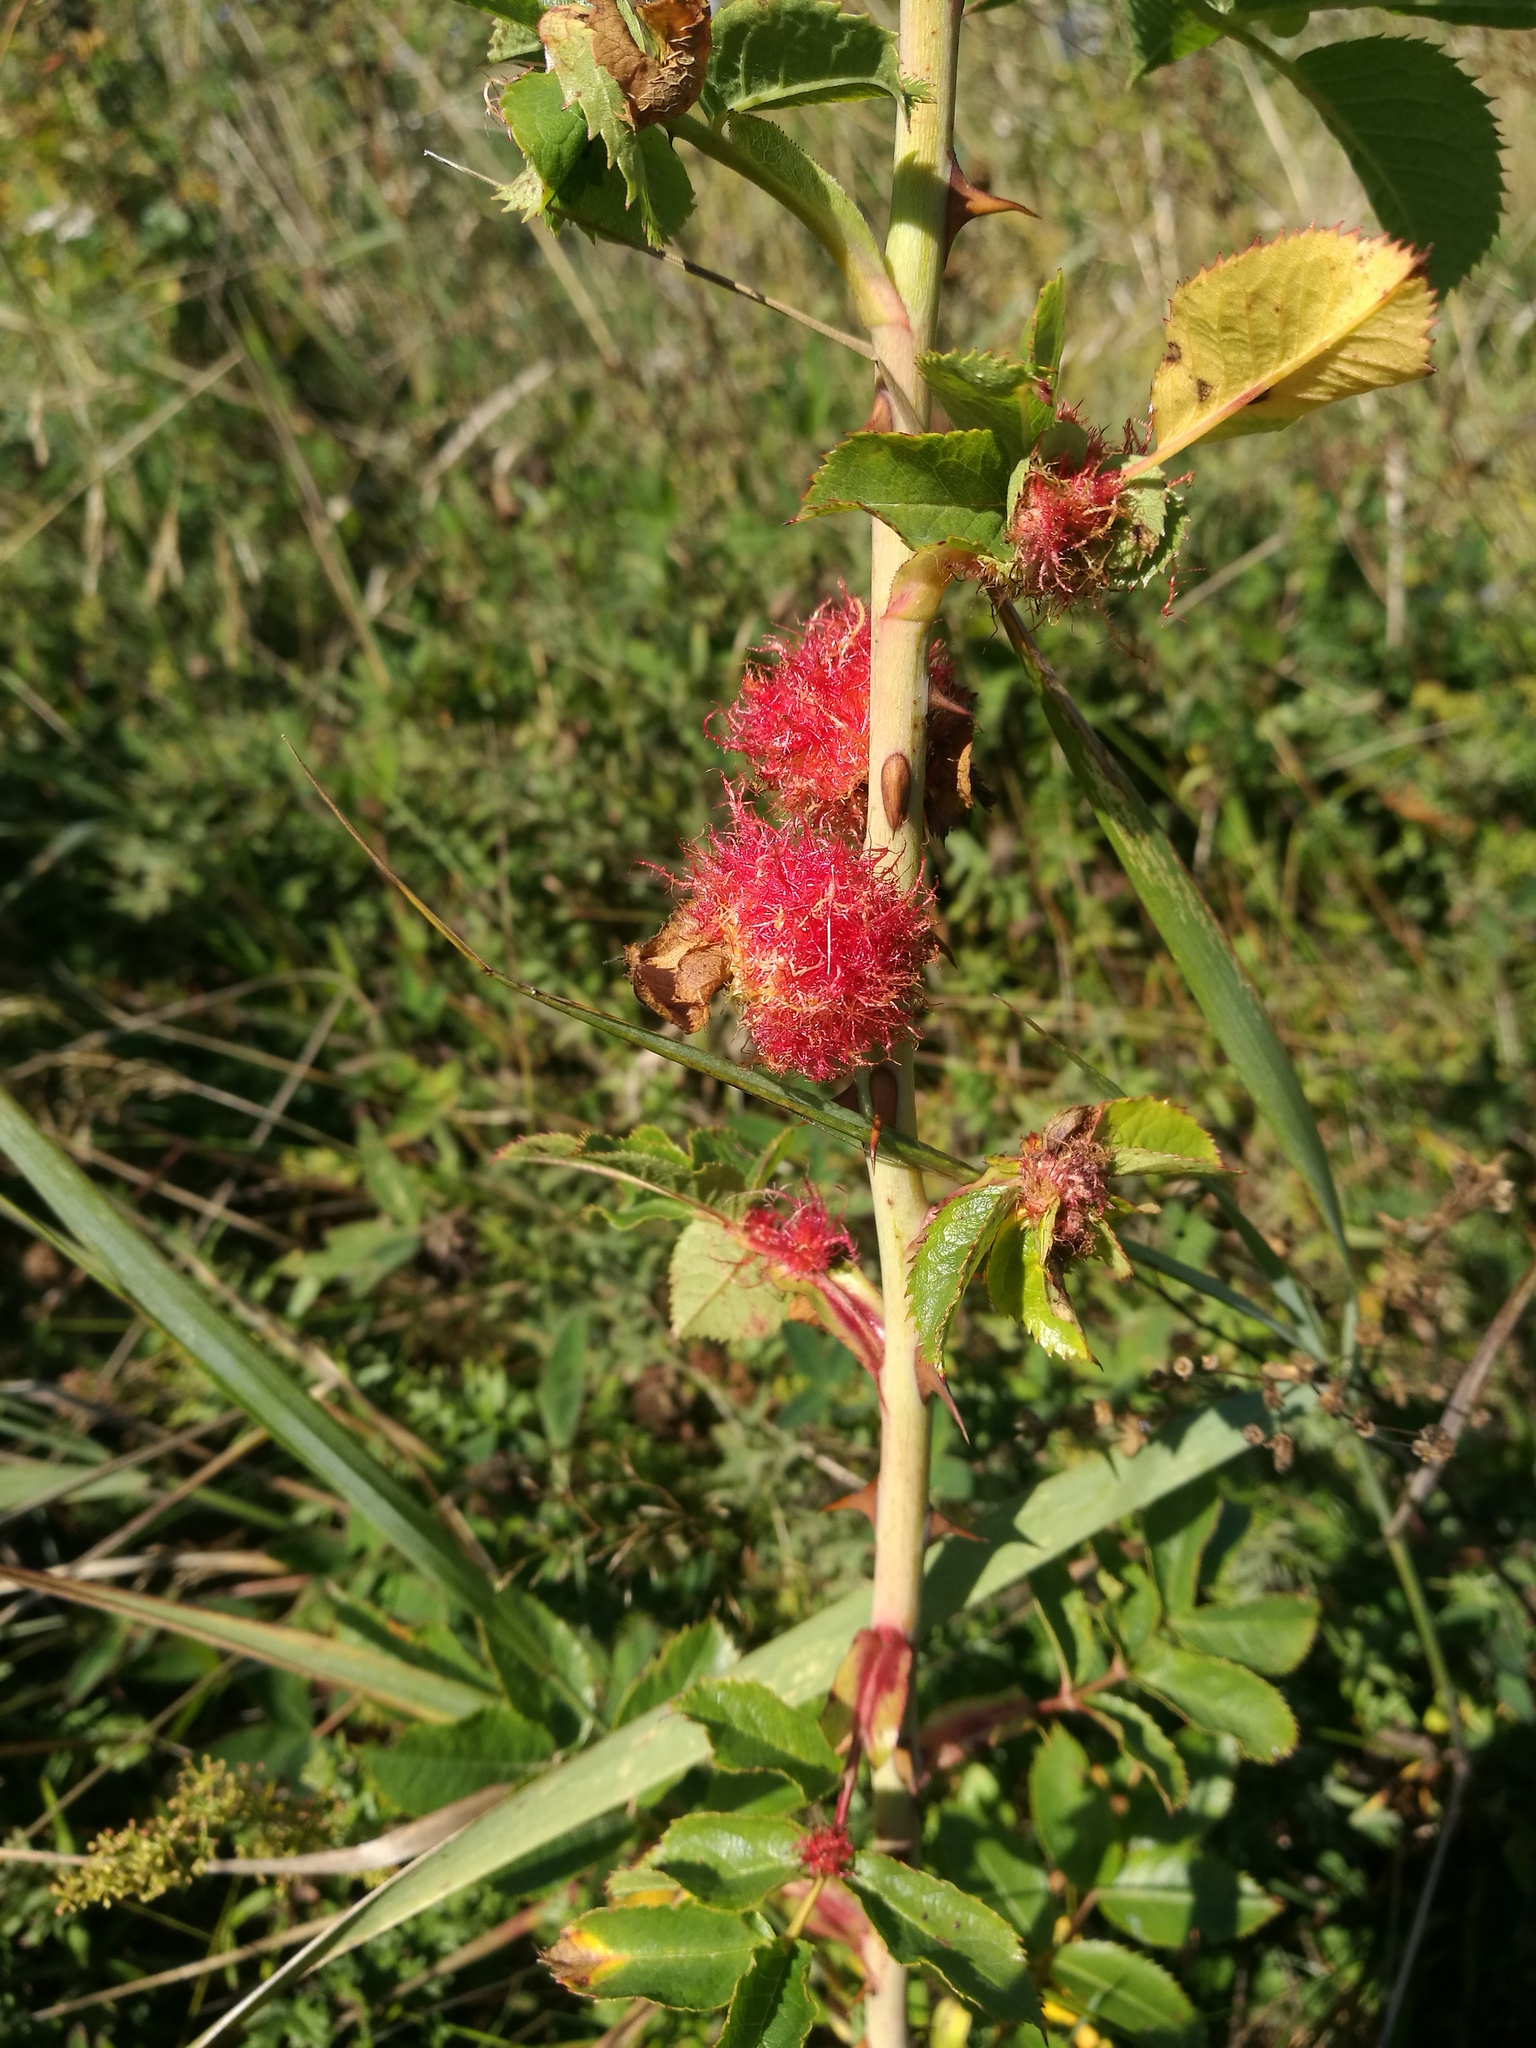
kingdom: Animalia
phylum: Arthropoda
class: Insecta
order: Hymenoptera
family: Cynipidae
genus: Diplolepis
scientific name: Diplolepis rosae
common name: Bedeguar gall
